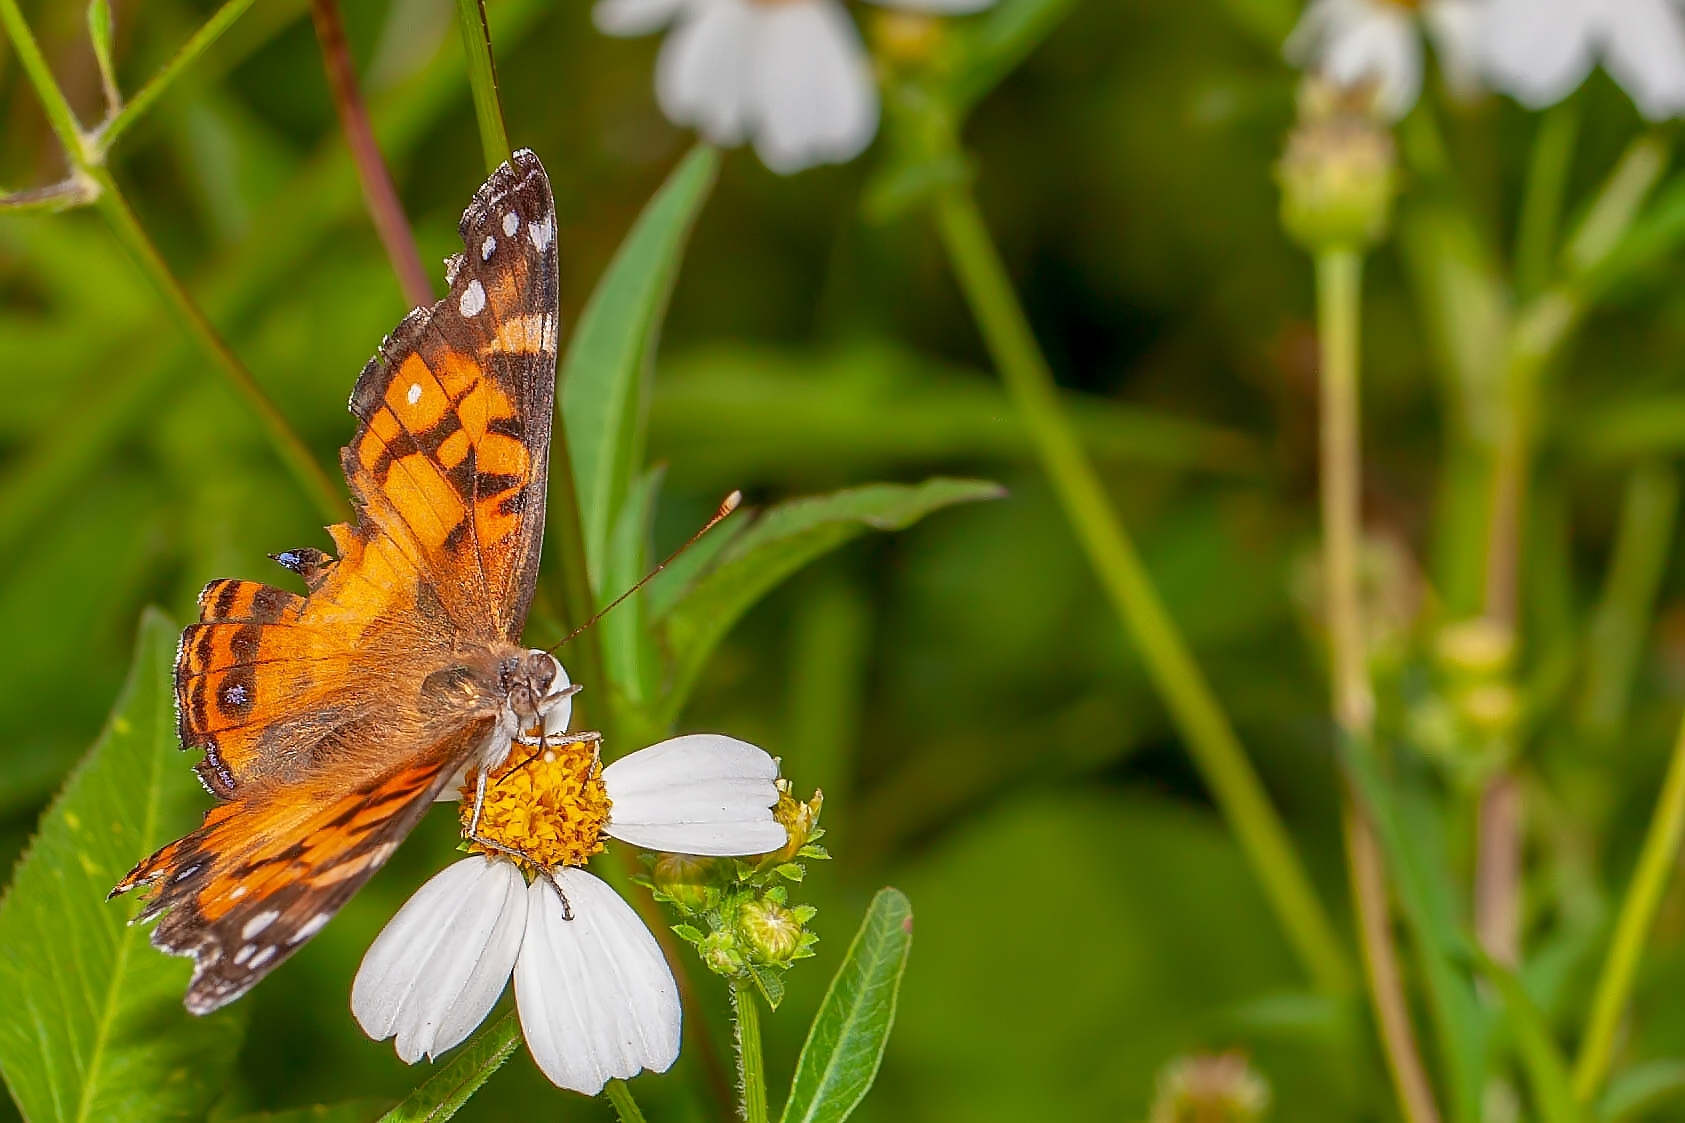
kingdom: Animalia
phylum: Arthropoda
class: Insecta
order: Lepidoptera
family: Nymphalidae
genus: Vanessa
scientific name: Vanessa virginiensis
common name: American lady
